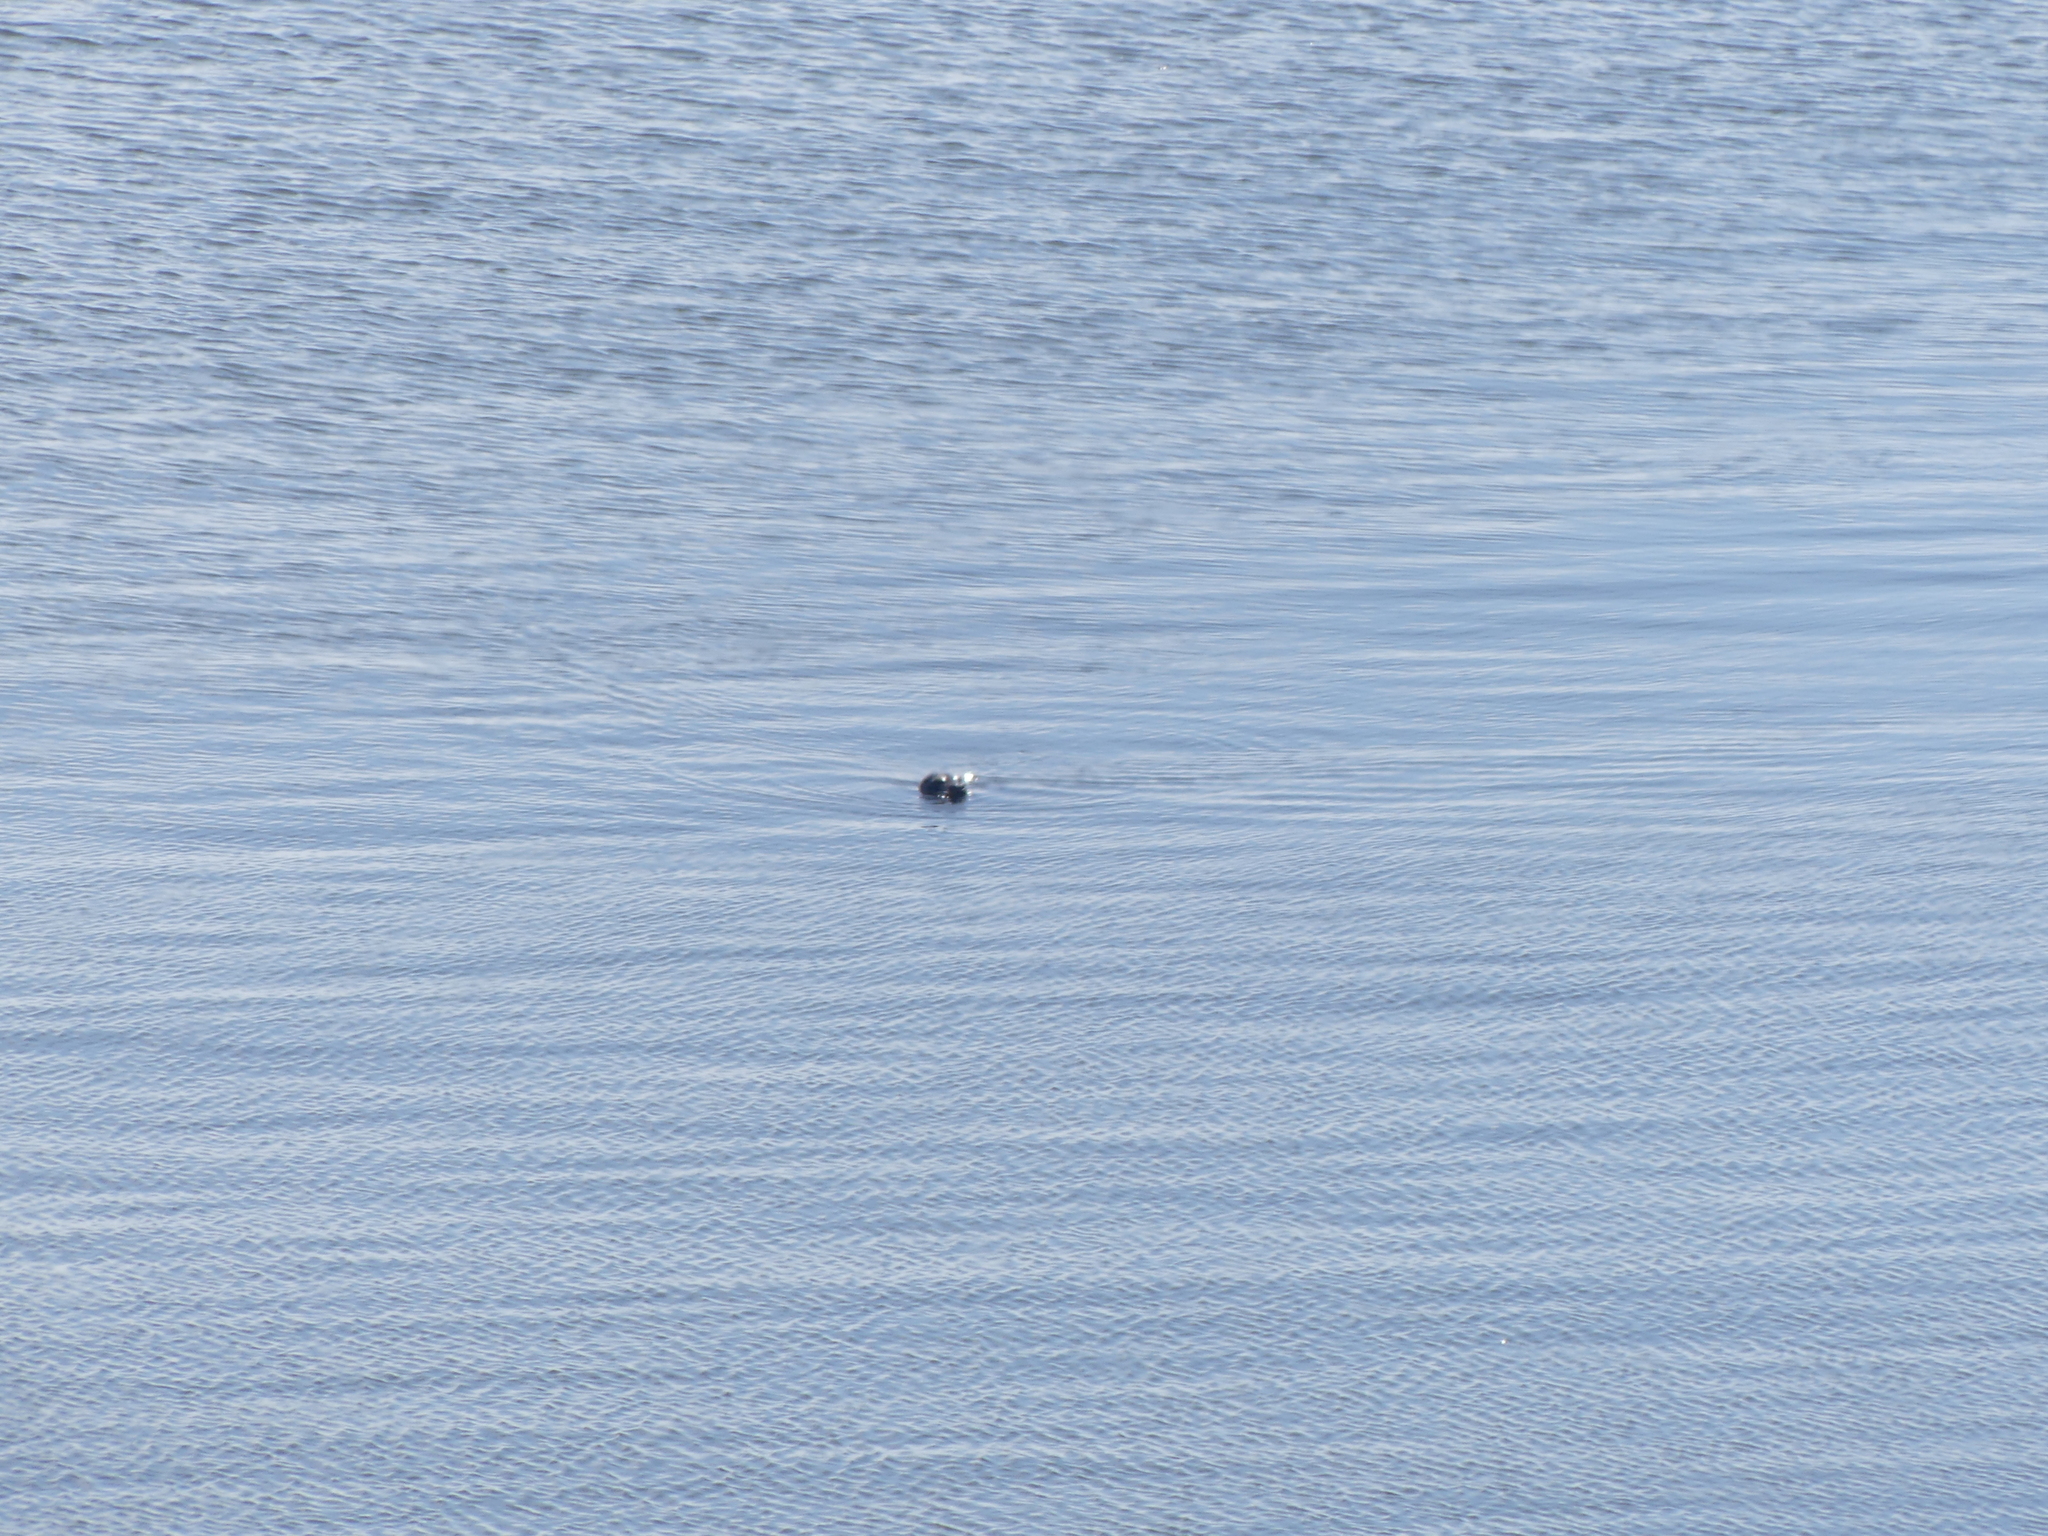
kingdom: Animalia
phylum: Chordata
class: Mammalia
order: Carnivora
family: Phocidae
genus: Phoca
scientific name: Phoca vitulina
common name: Harbor seal
